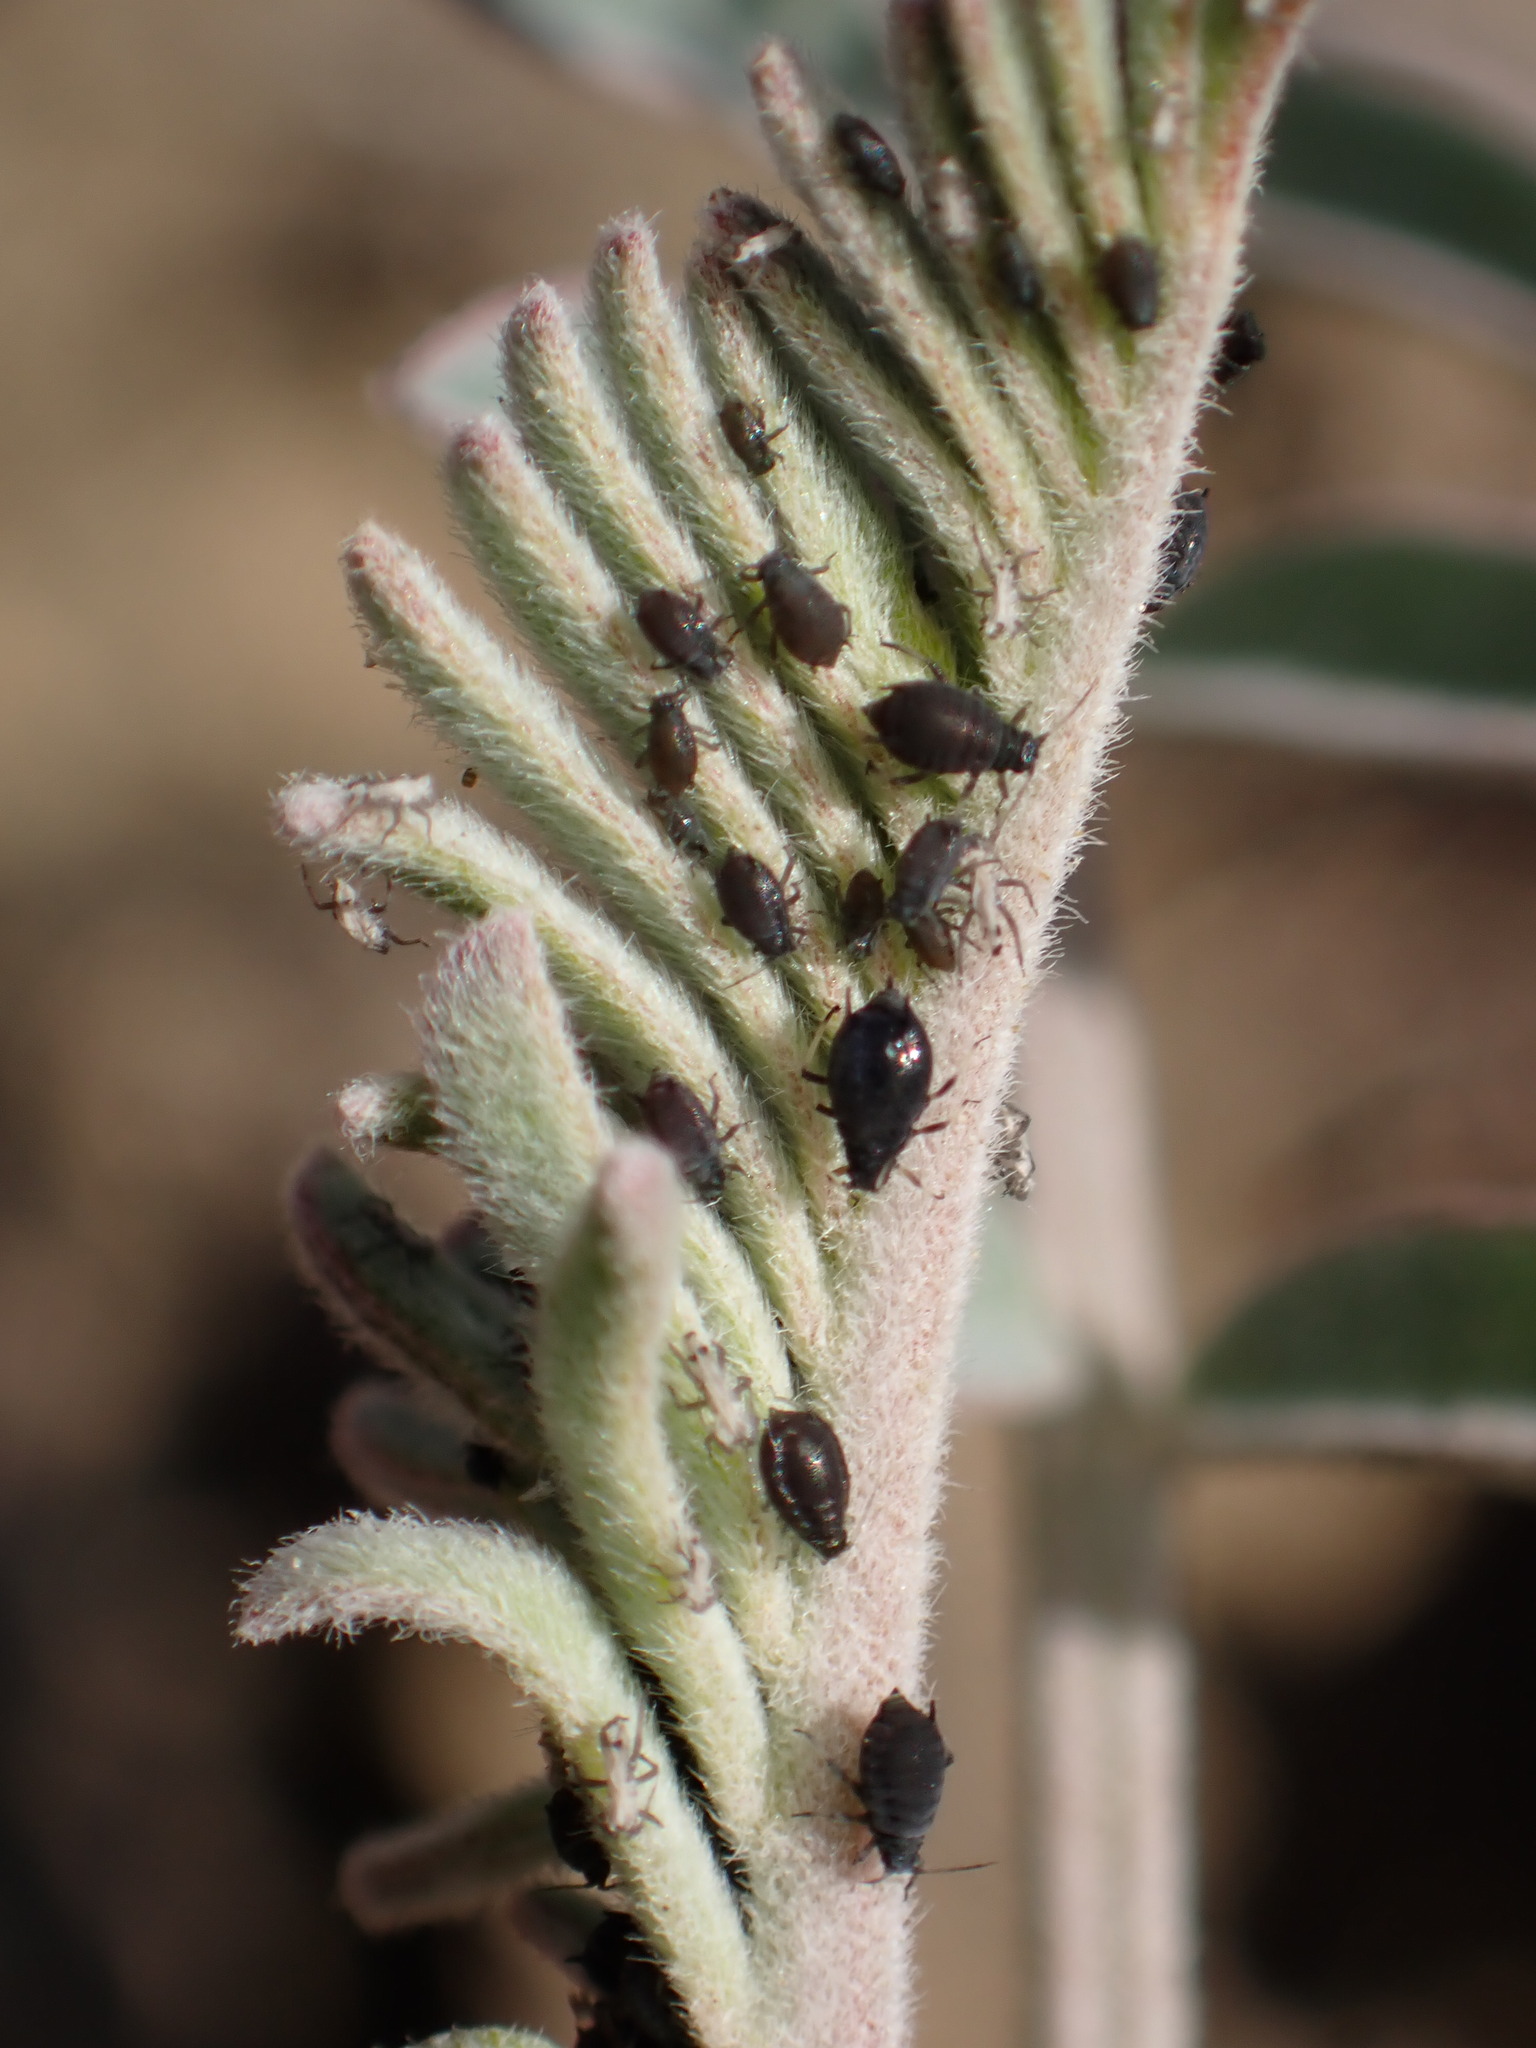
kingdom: Animalia
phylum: Arthropoda
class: Insecta
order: Hemiptera
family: Aphididae
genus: Aphis
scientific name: Aphis craccivora
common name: Cowpea aphid
